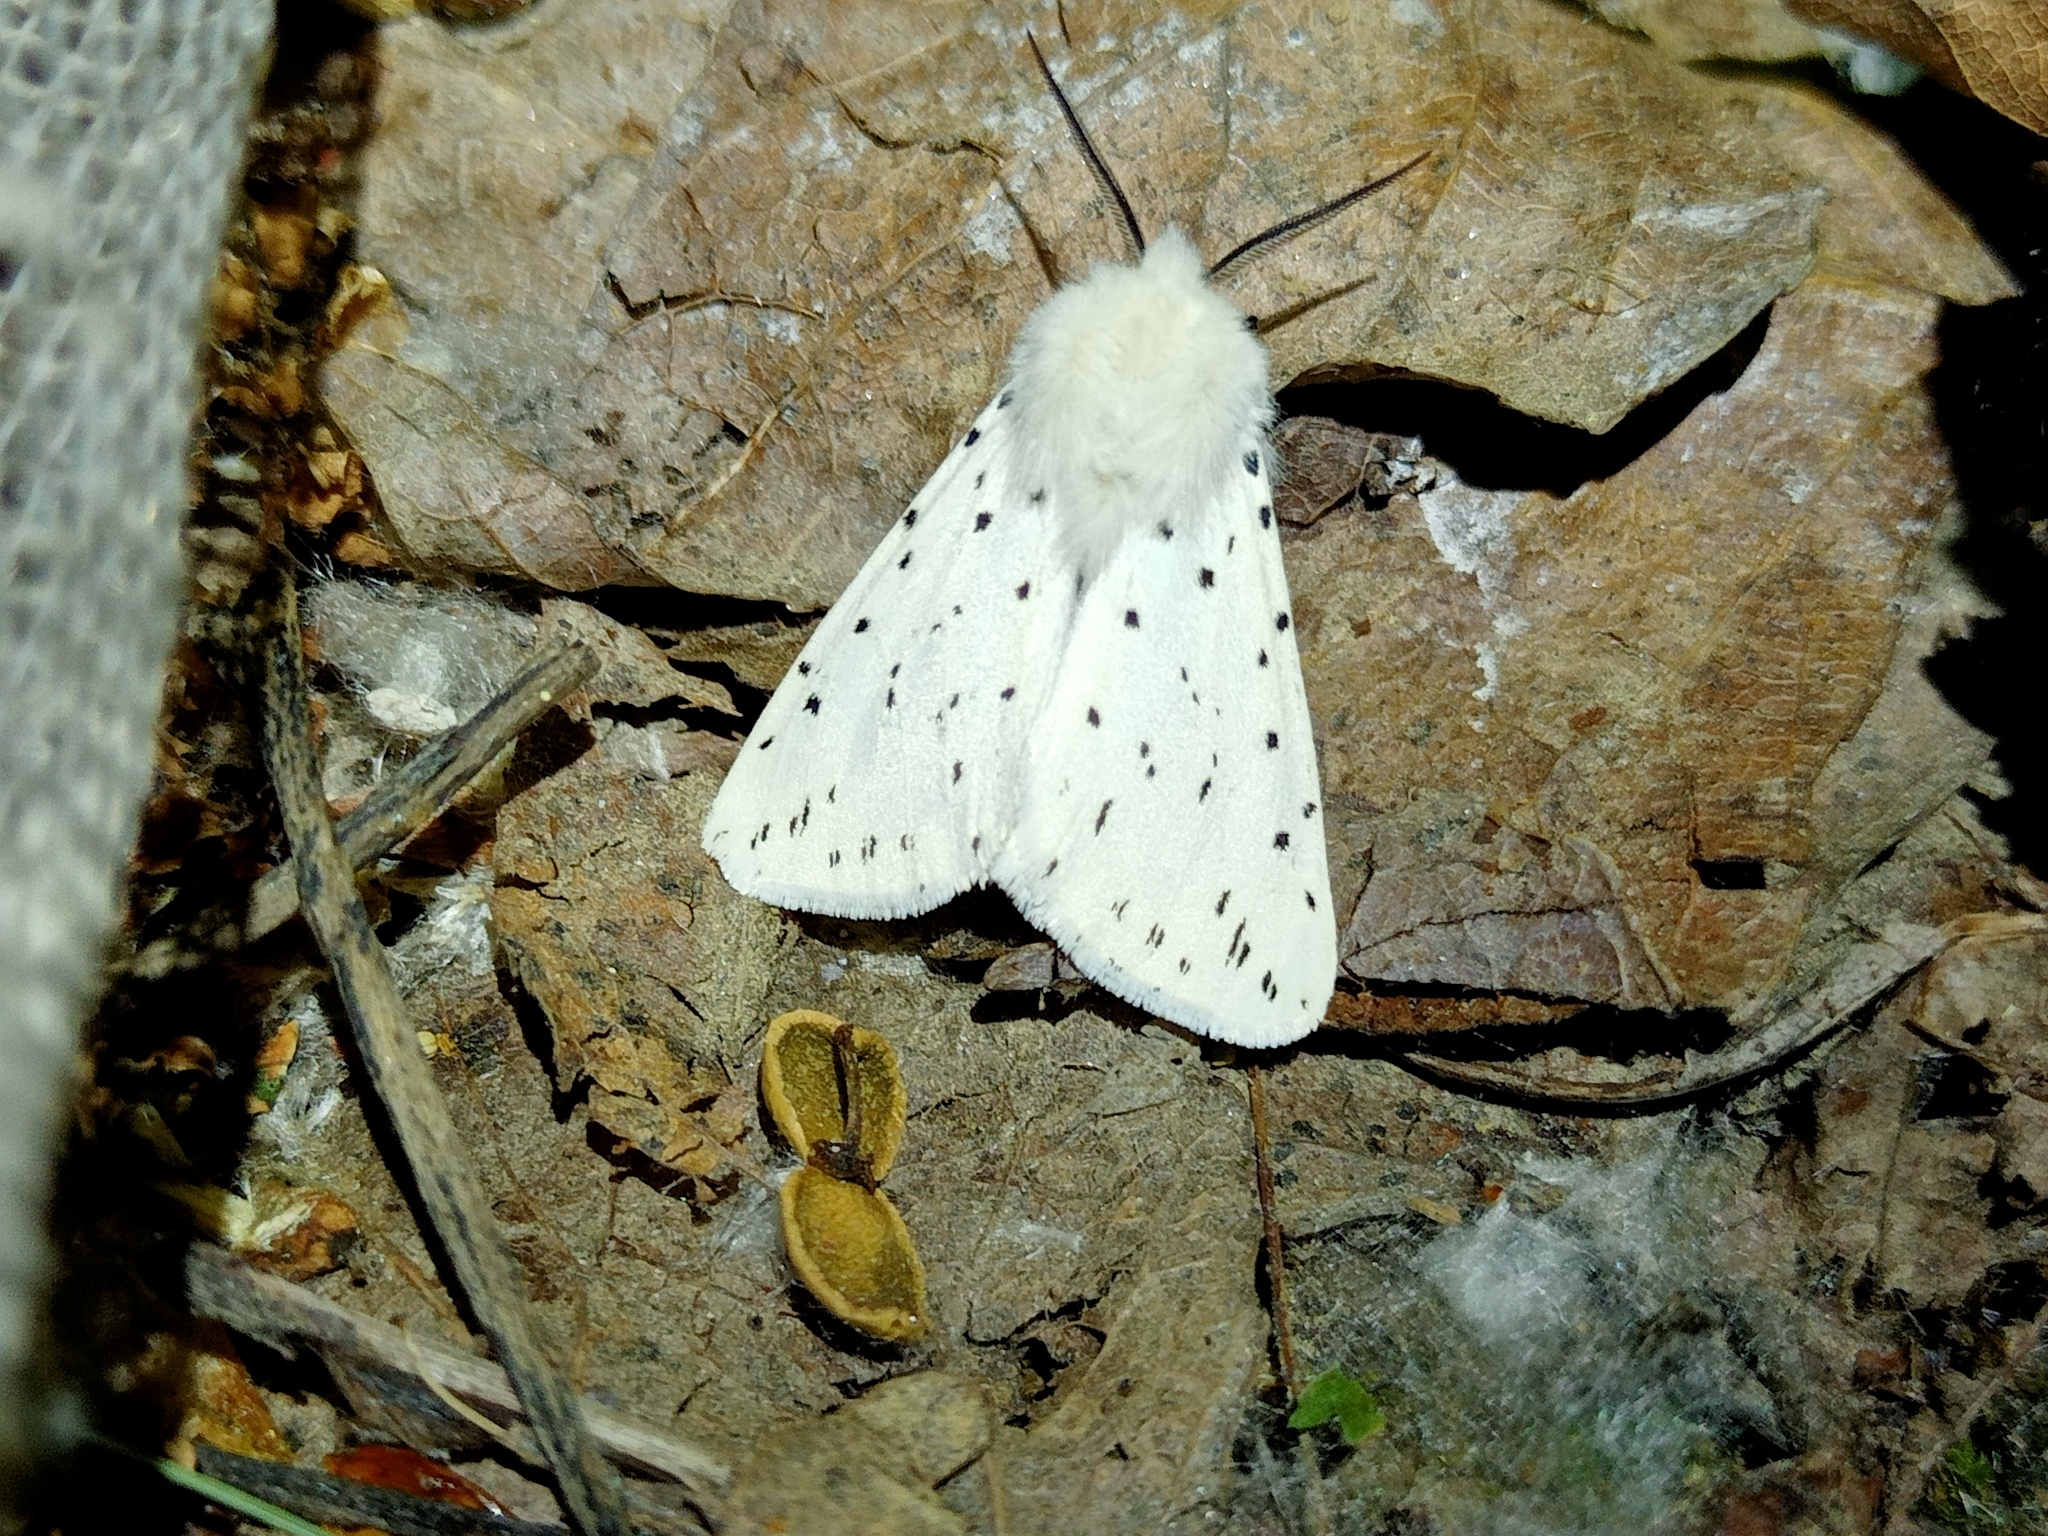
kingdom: Animalia
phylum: Arthropoda
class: Insecta
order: Lepidoptera
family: Erebidae
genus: Spilosoma
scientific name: Spilosoma lubricipeda
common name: White ermine
